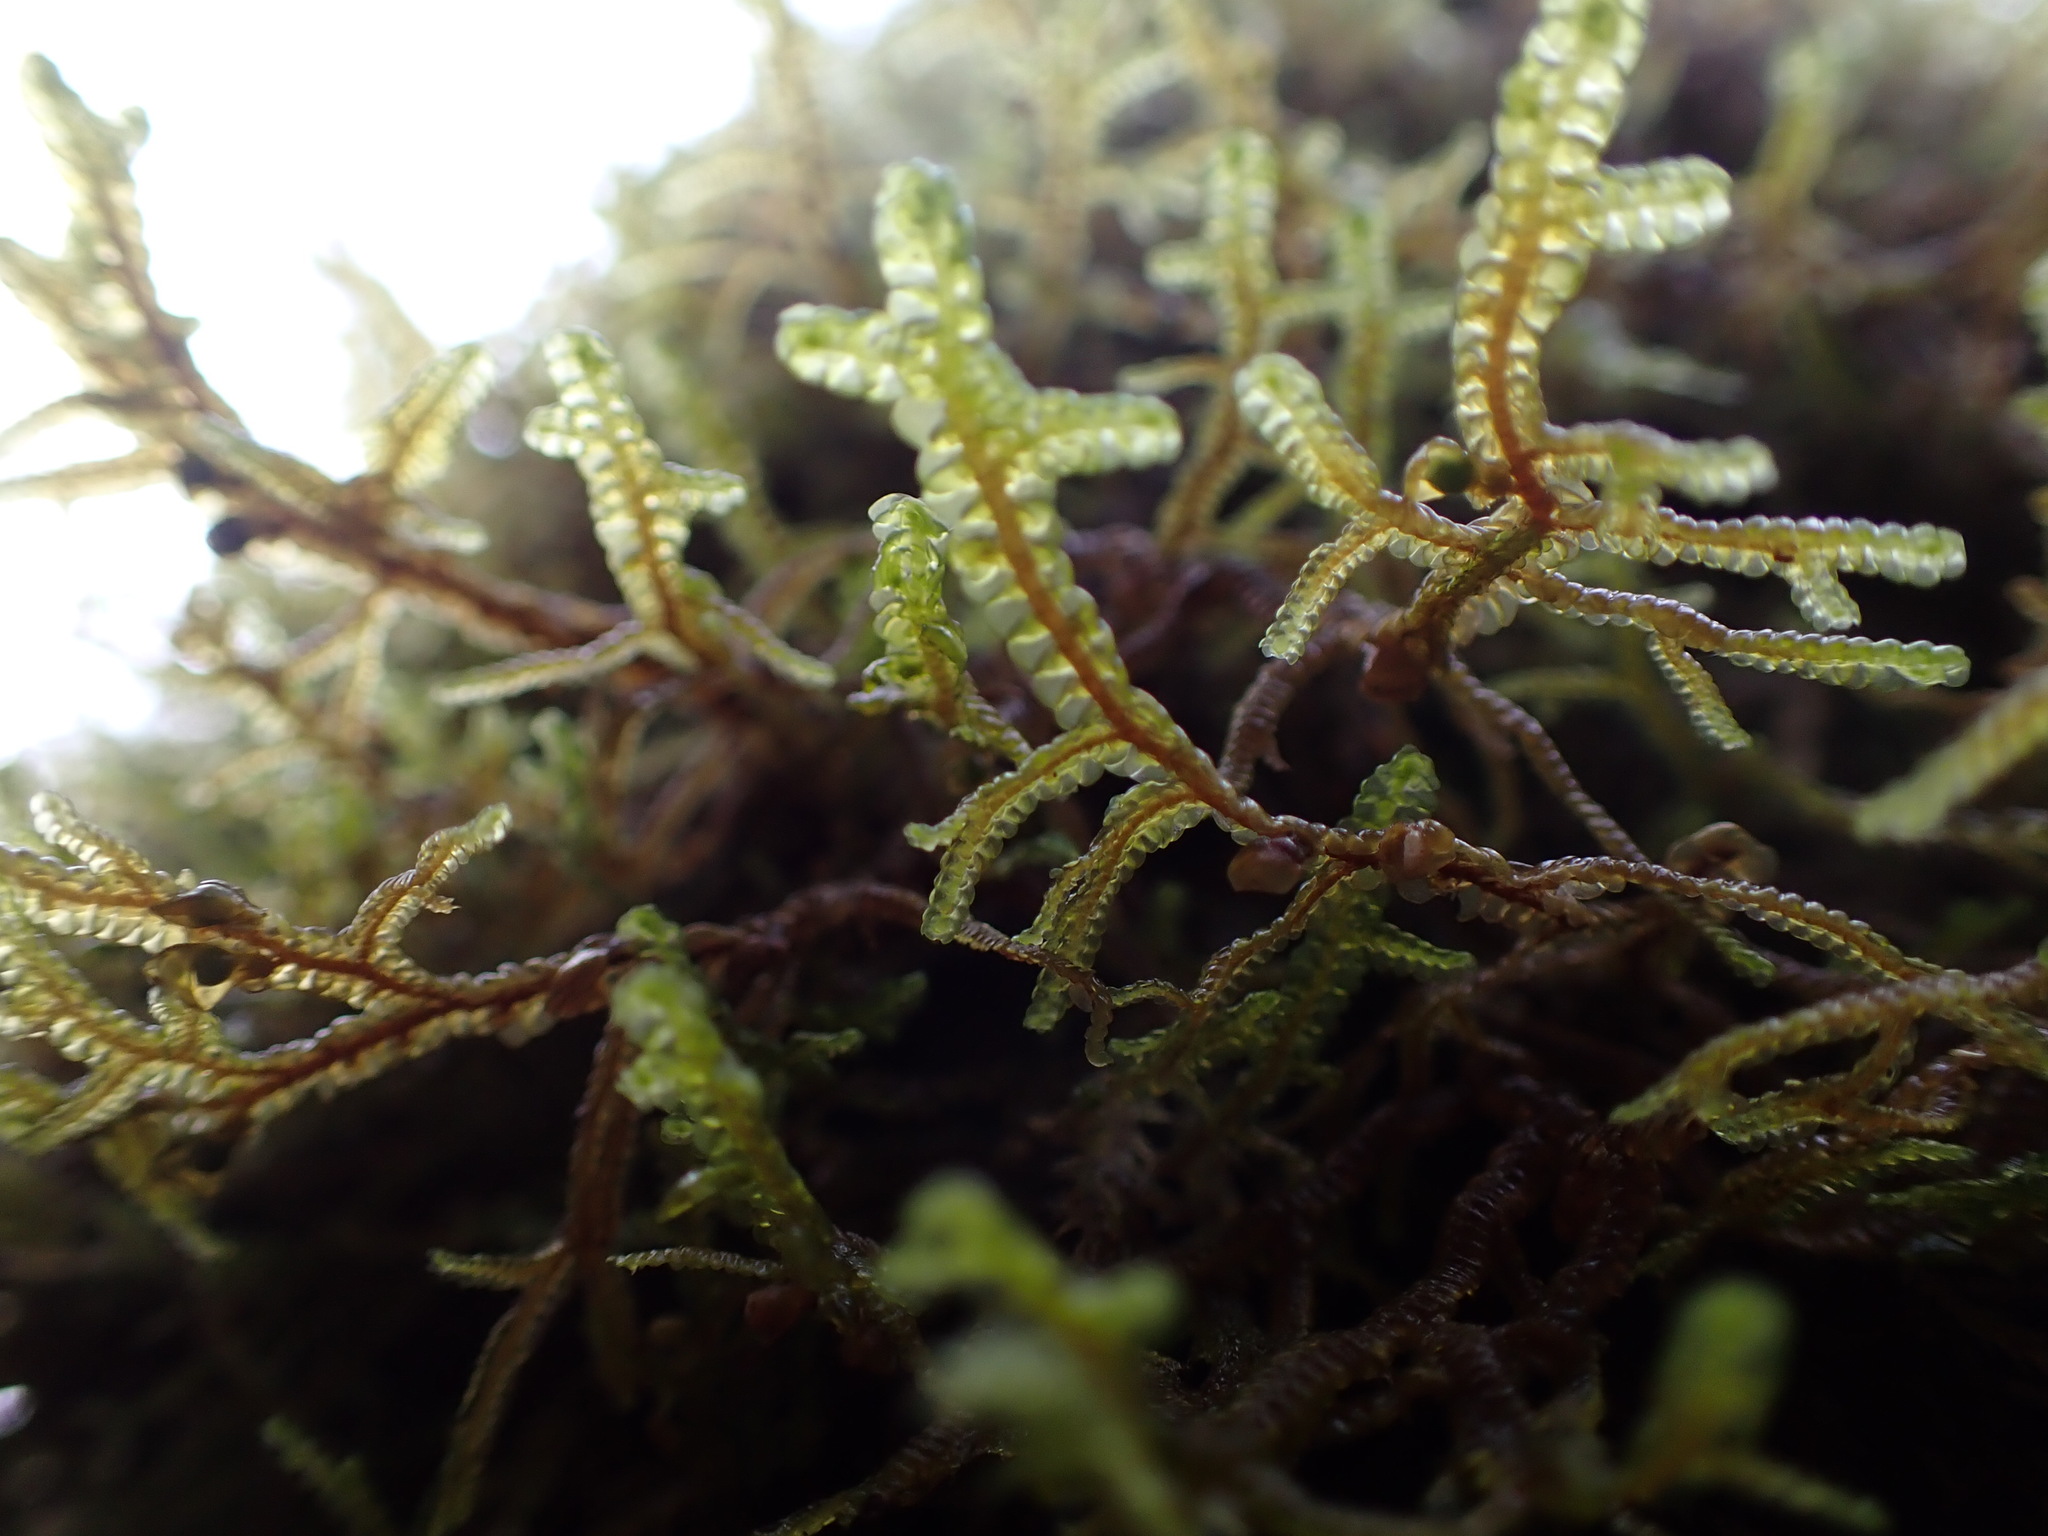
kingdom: Plantae
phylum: Marchantiophyta
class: Jungermanniopsida
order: Porellales
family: Porellaceae
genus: Porella
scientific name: Porella navicularis
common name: Tree ruffle liverwort
